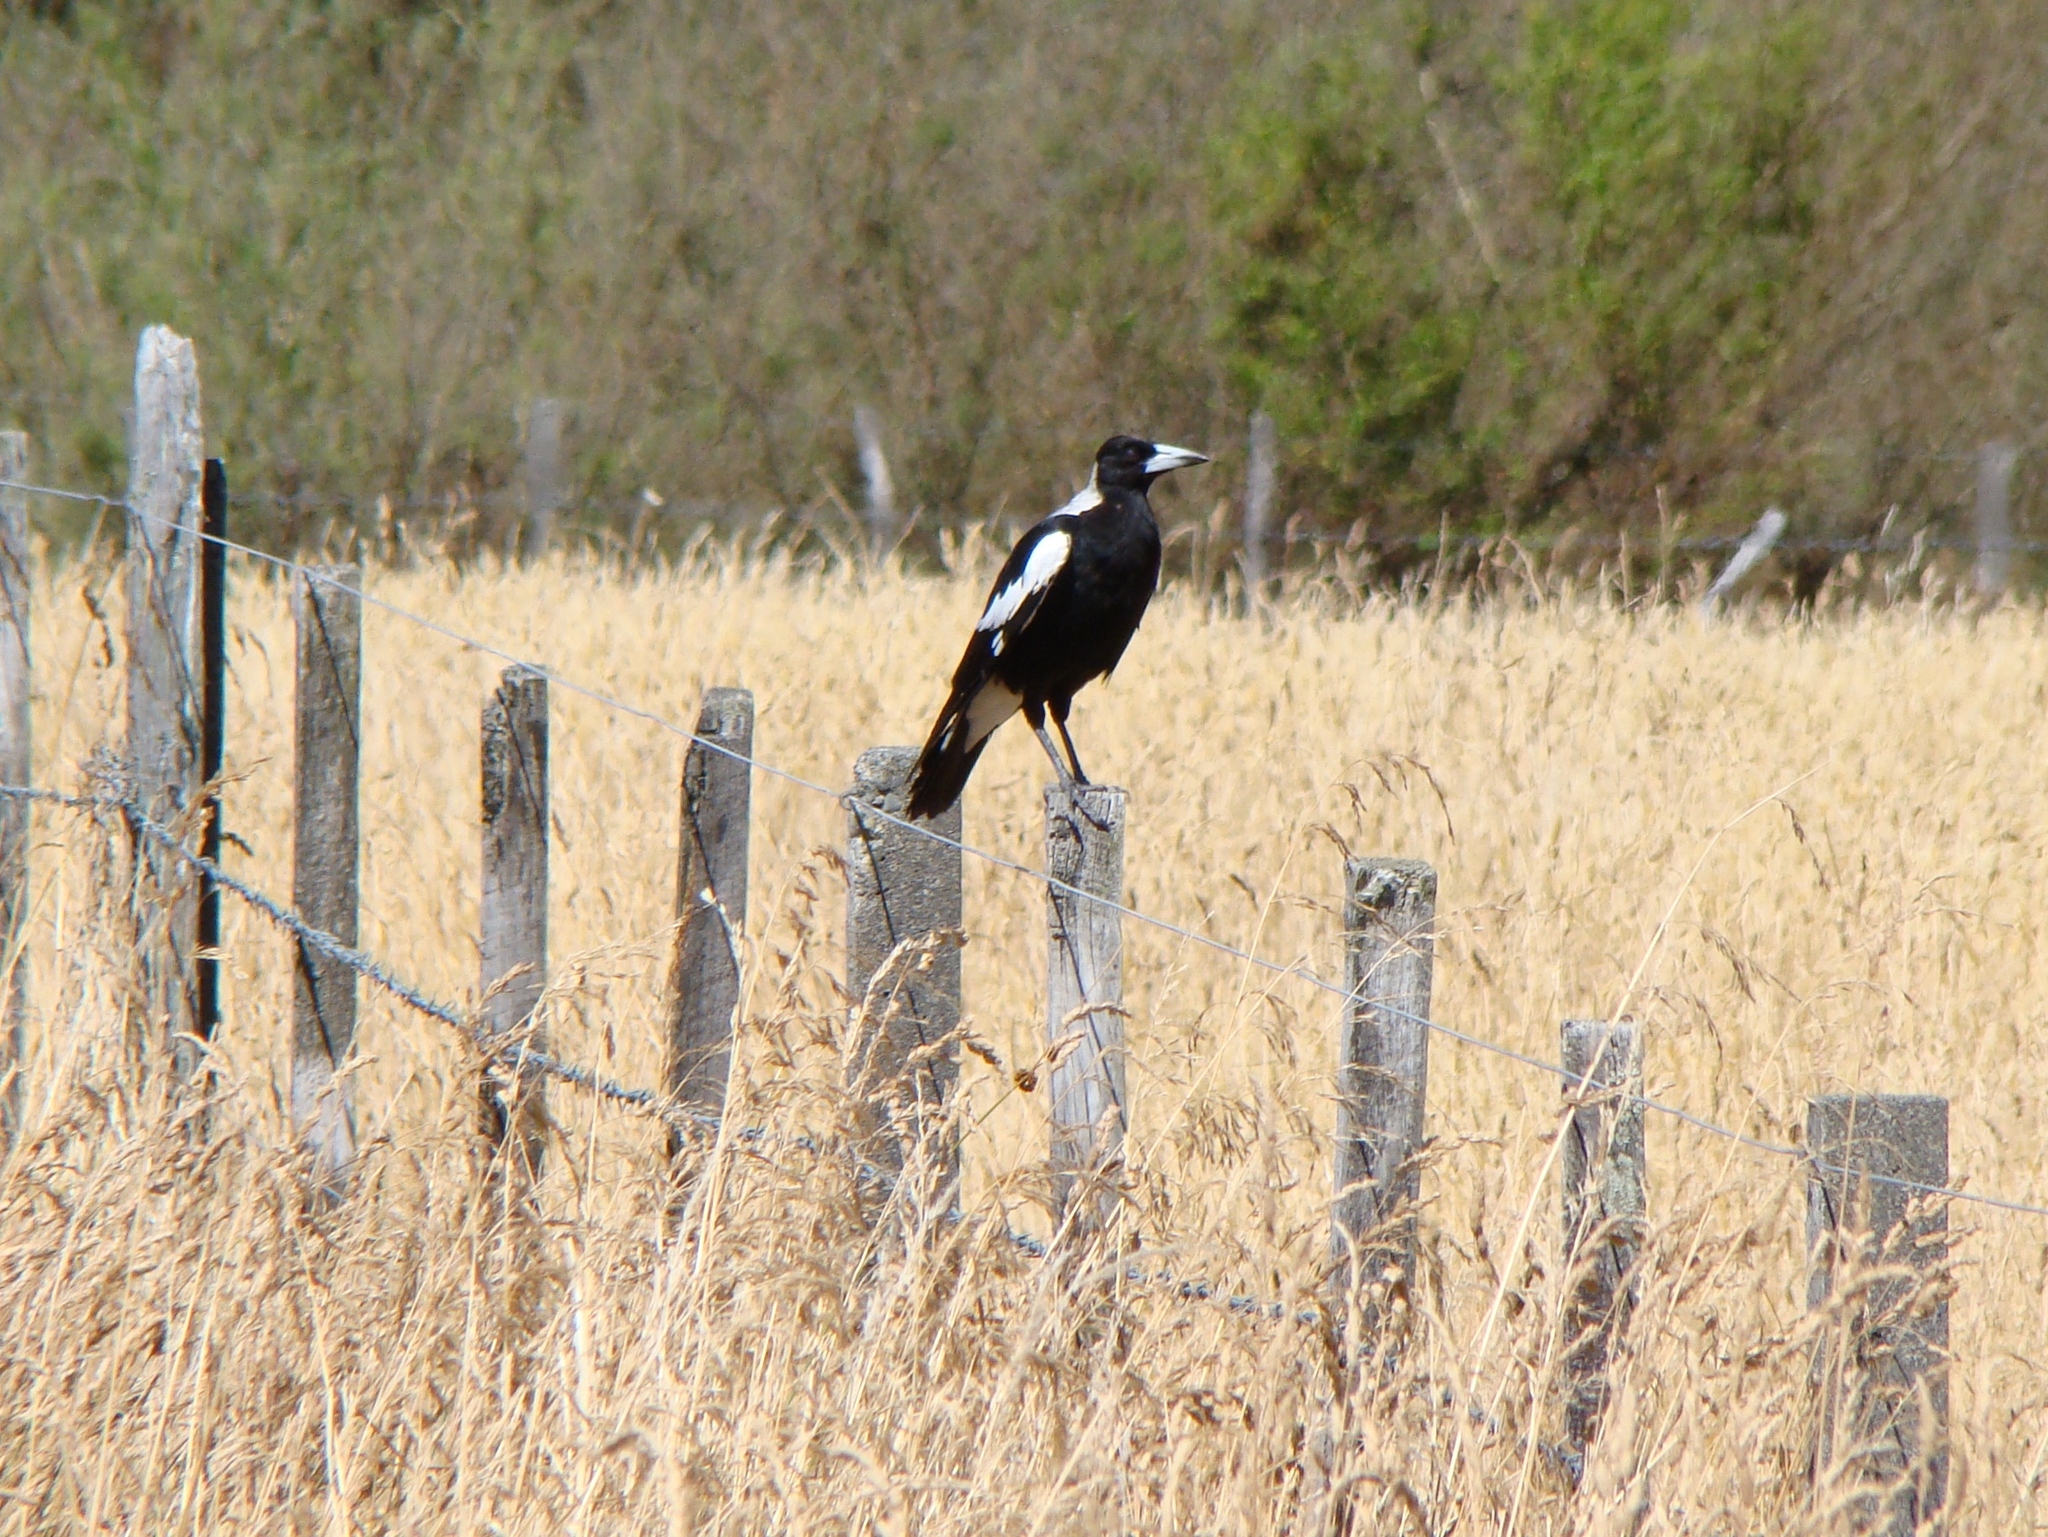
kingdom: Animalia
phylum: Chordata
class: Aves
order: Passeriformes
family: Cracticidae
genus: Gymnorhina
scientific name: Gymnorhina tibicen
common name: Australian magpie
